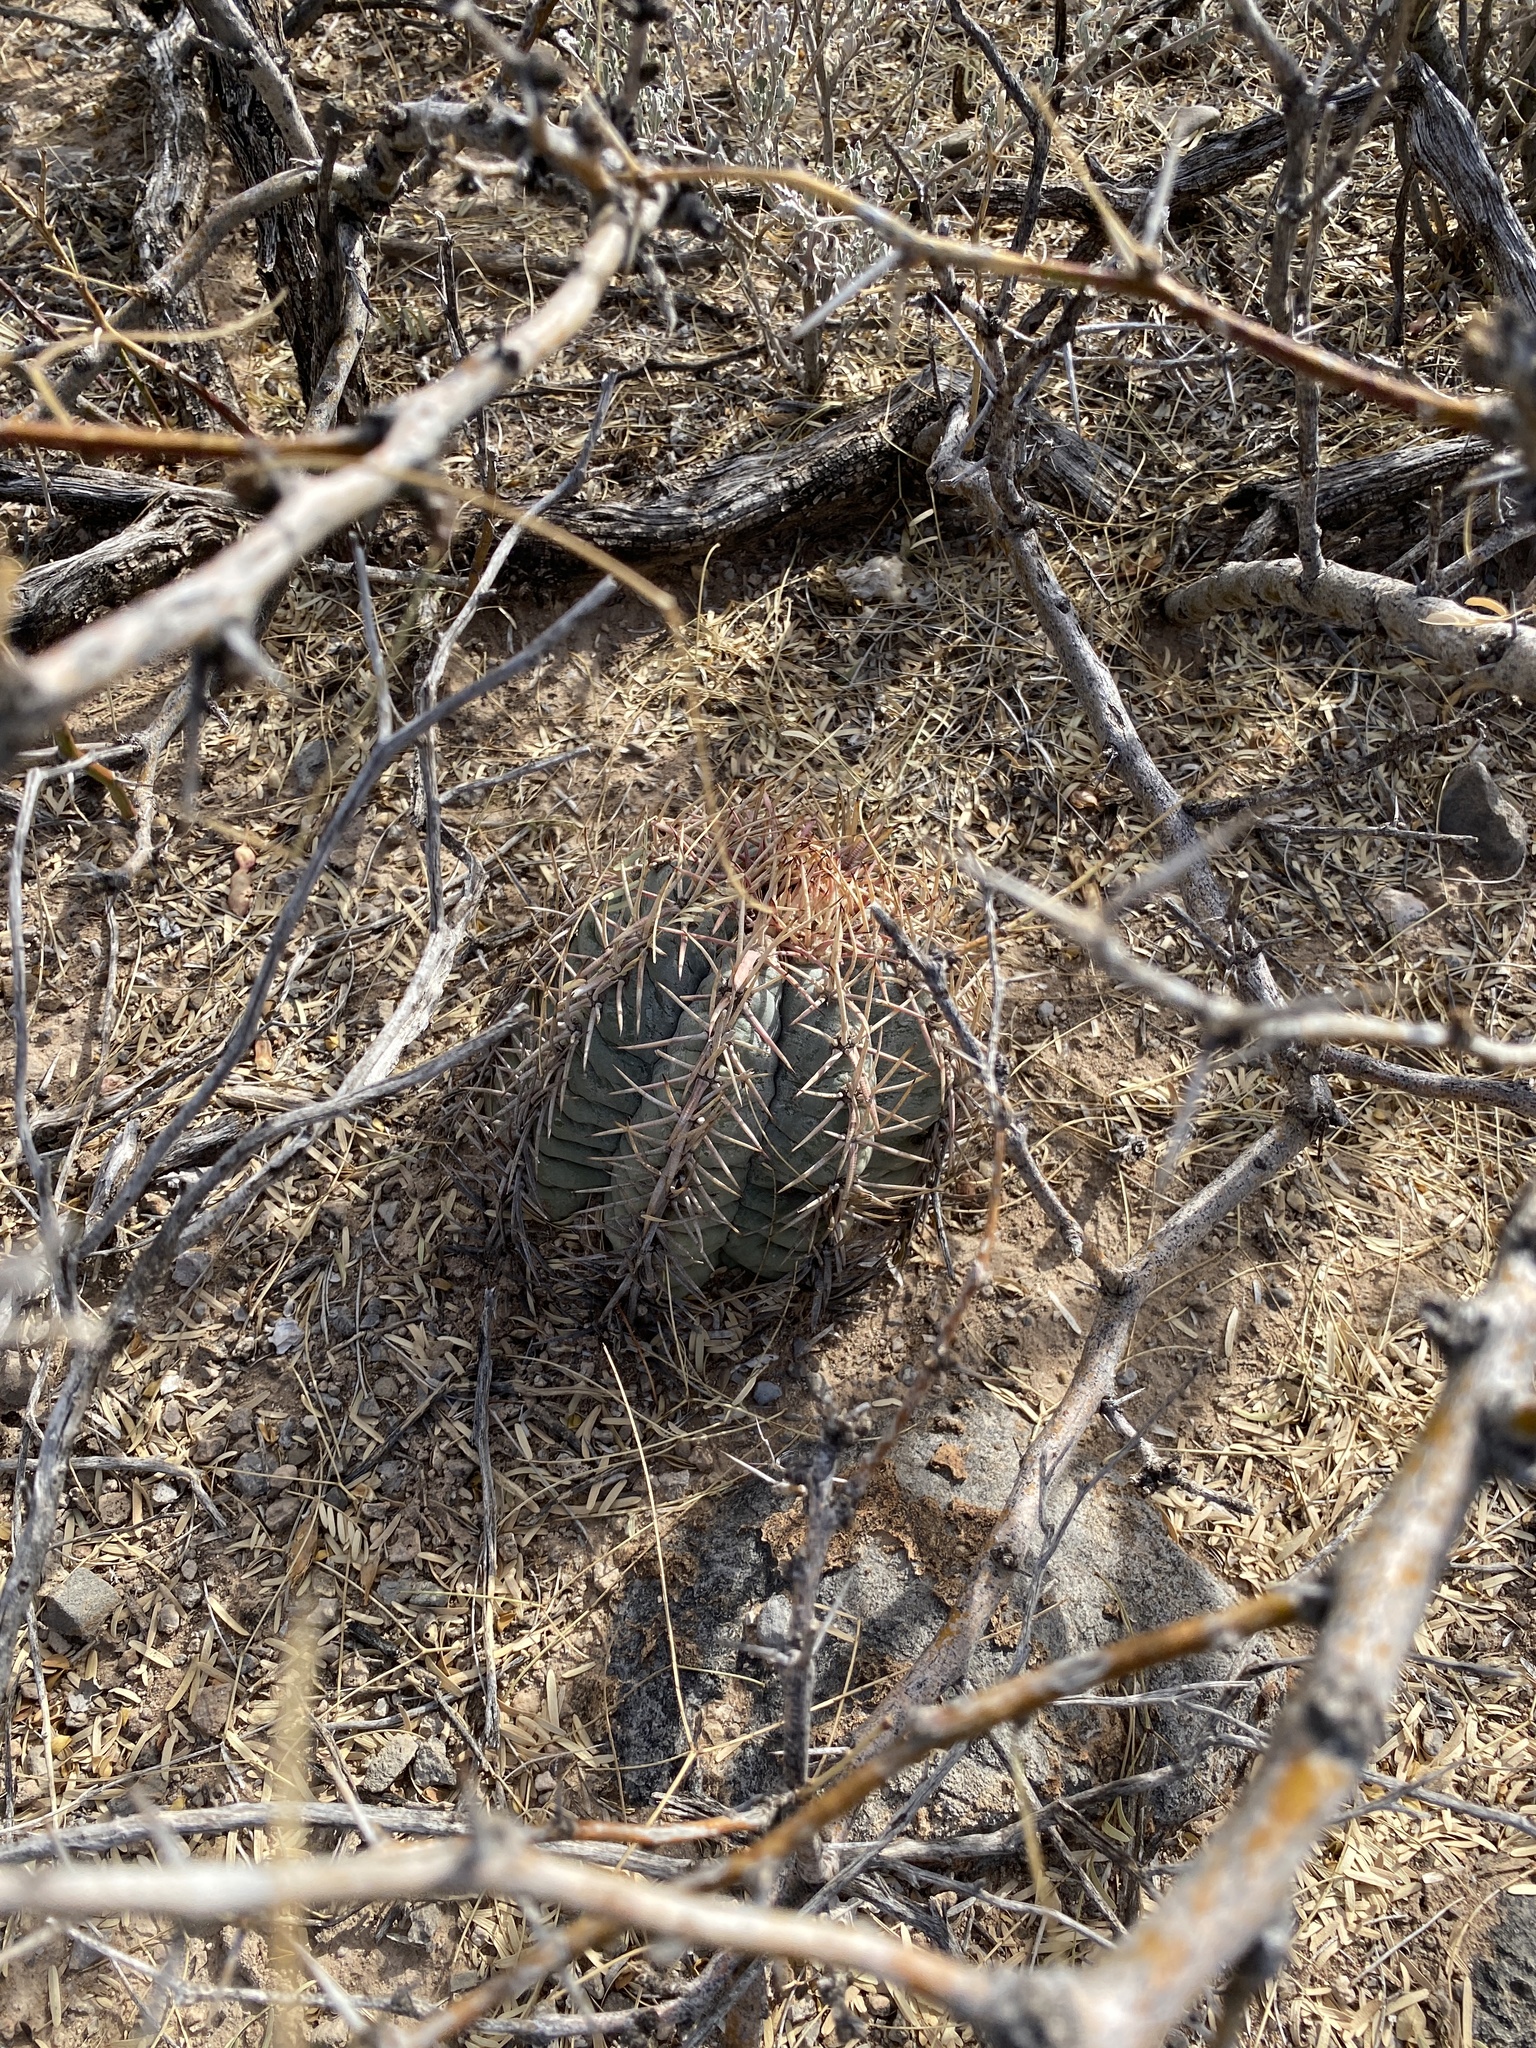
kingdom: Plantae
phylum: Tracheophyta
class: Magnoliopsida
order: Caryophyllales
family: Cactaceae
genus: Echinocactus
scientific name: Echinocactus horizonthalonius
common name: Devilshead
